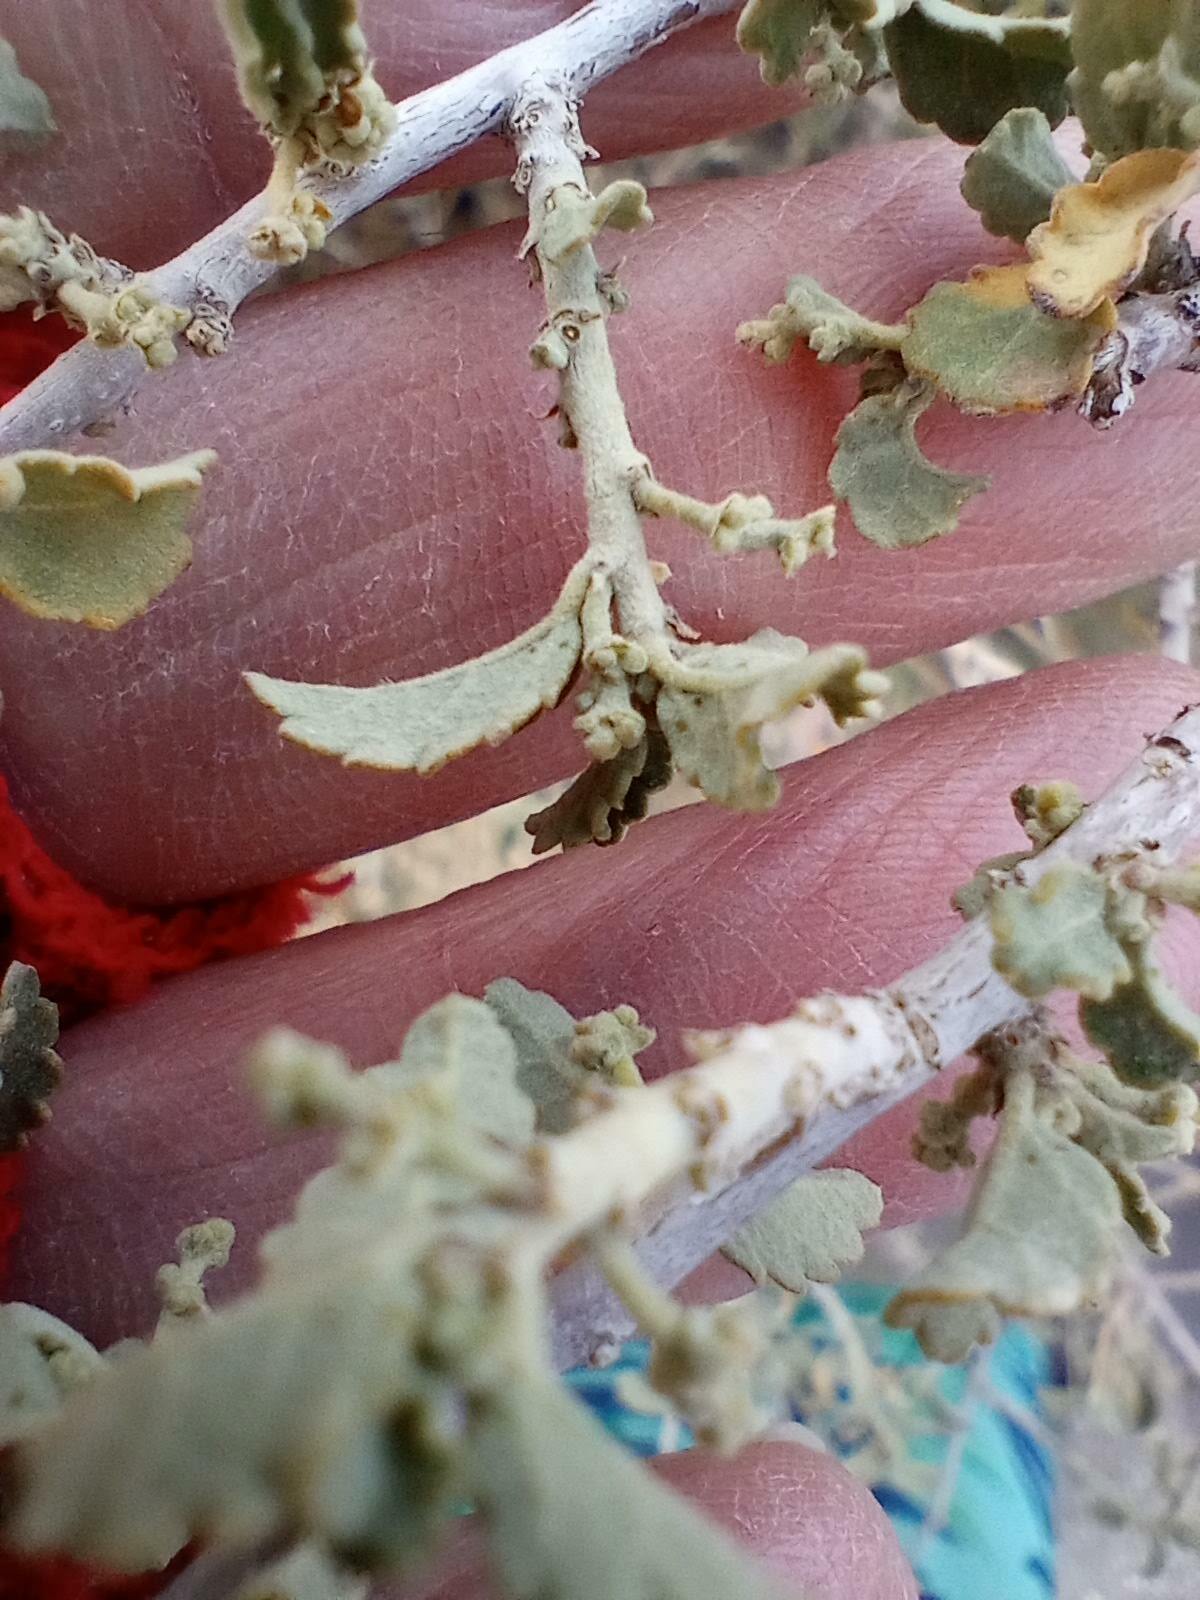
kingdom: Plantae
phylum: Tracheophyta
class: Magnoliopsida
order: Malpighiales
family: Euphorbiaceae
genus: Bernardia
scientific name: Bernardia incana
